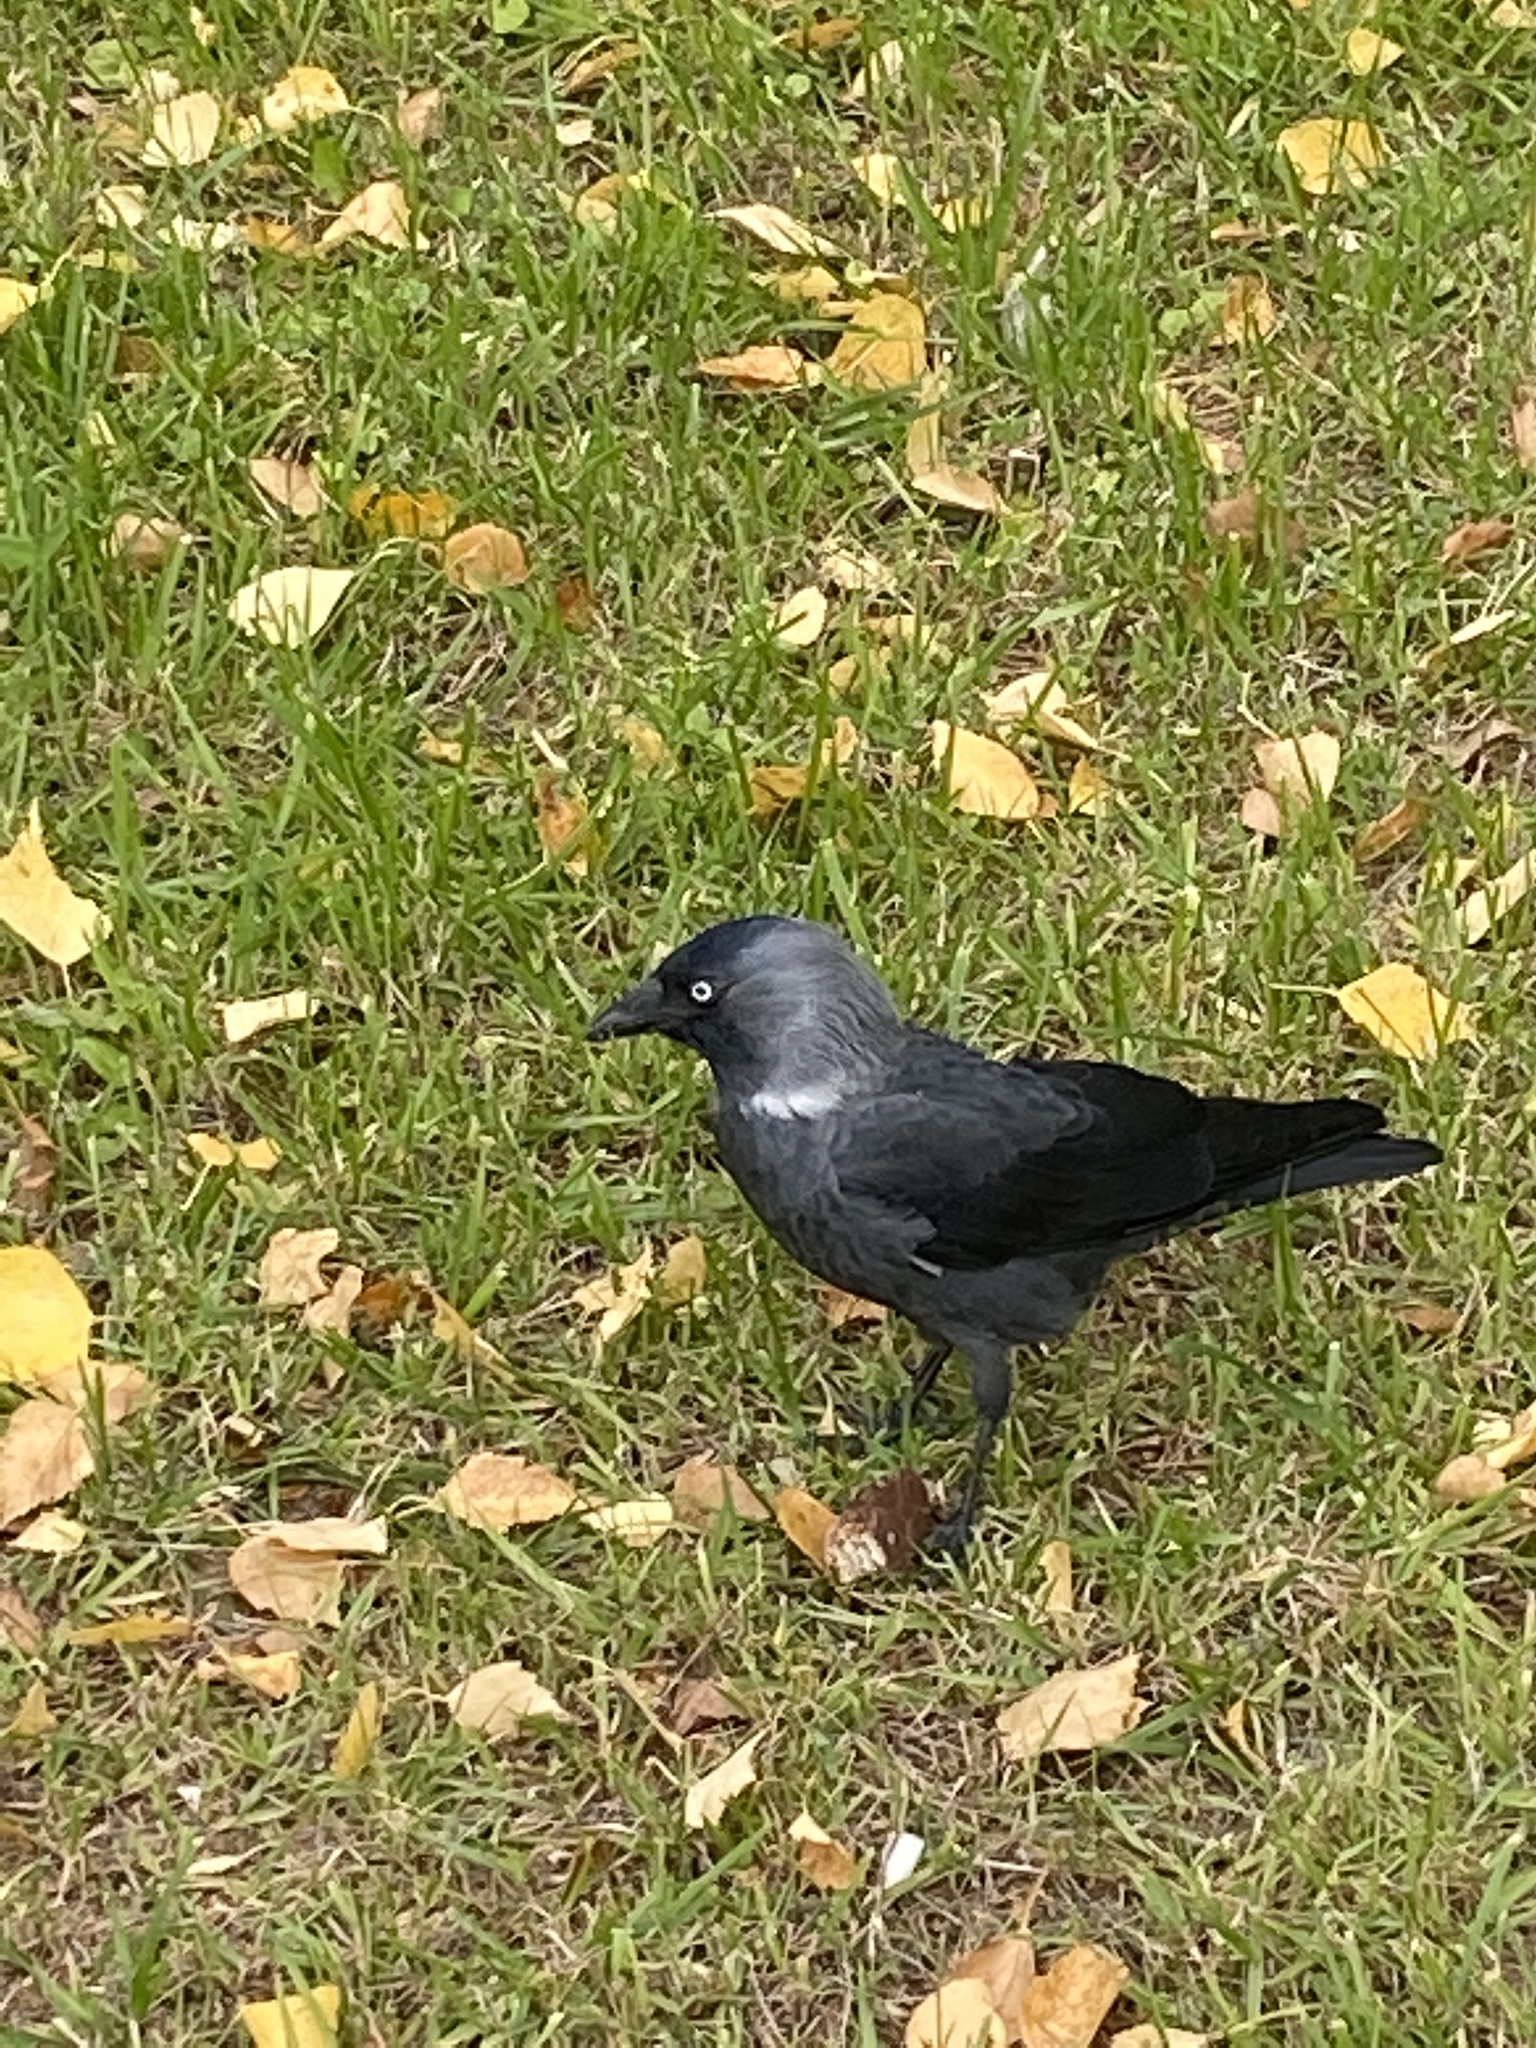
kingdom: Animalia
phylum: Chordata
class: Aves
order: Passeriformes
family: Corvidae
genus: Coloeus
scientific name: Coloeus monedula
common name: Western jackdaw
